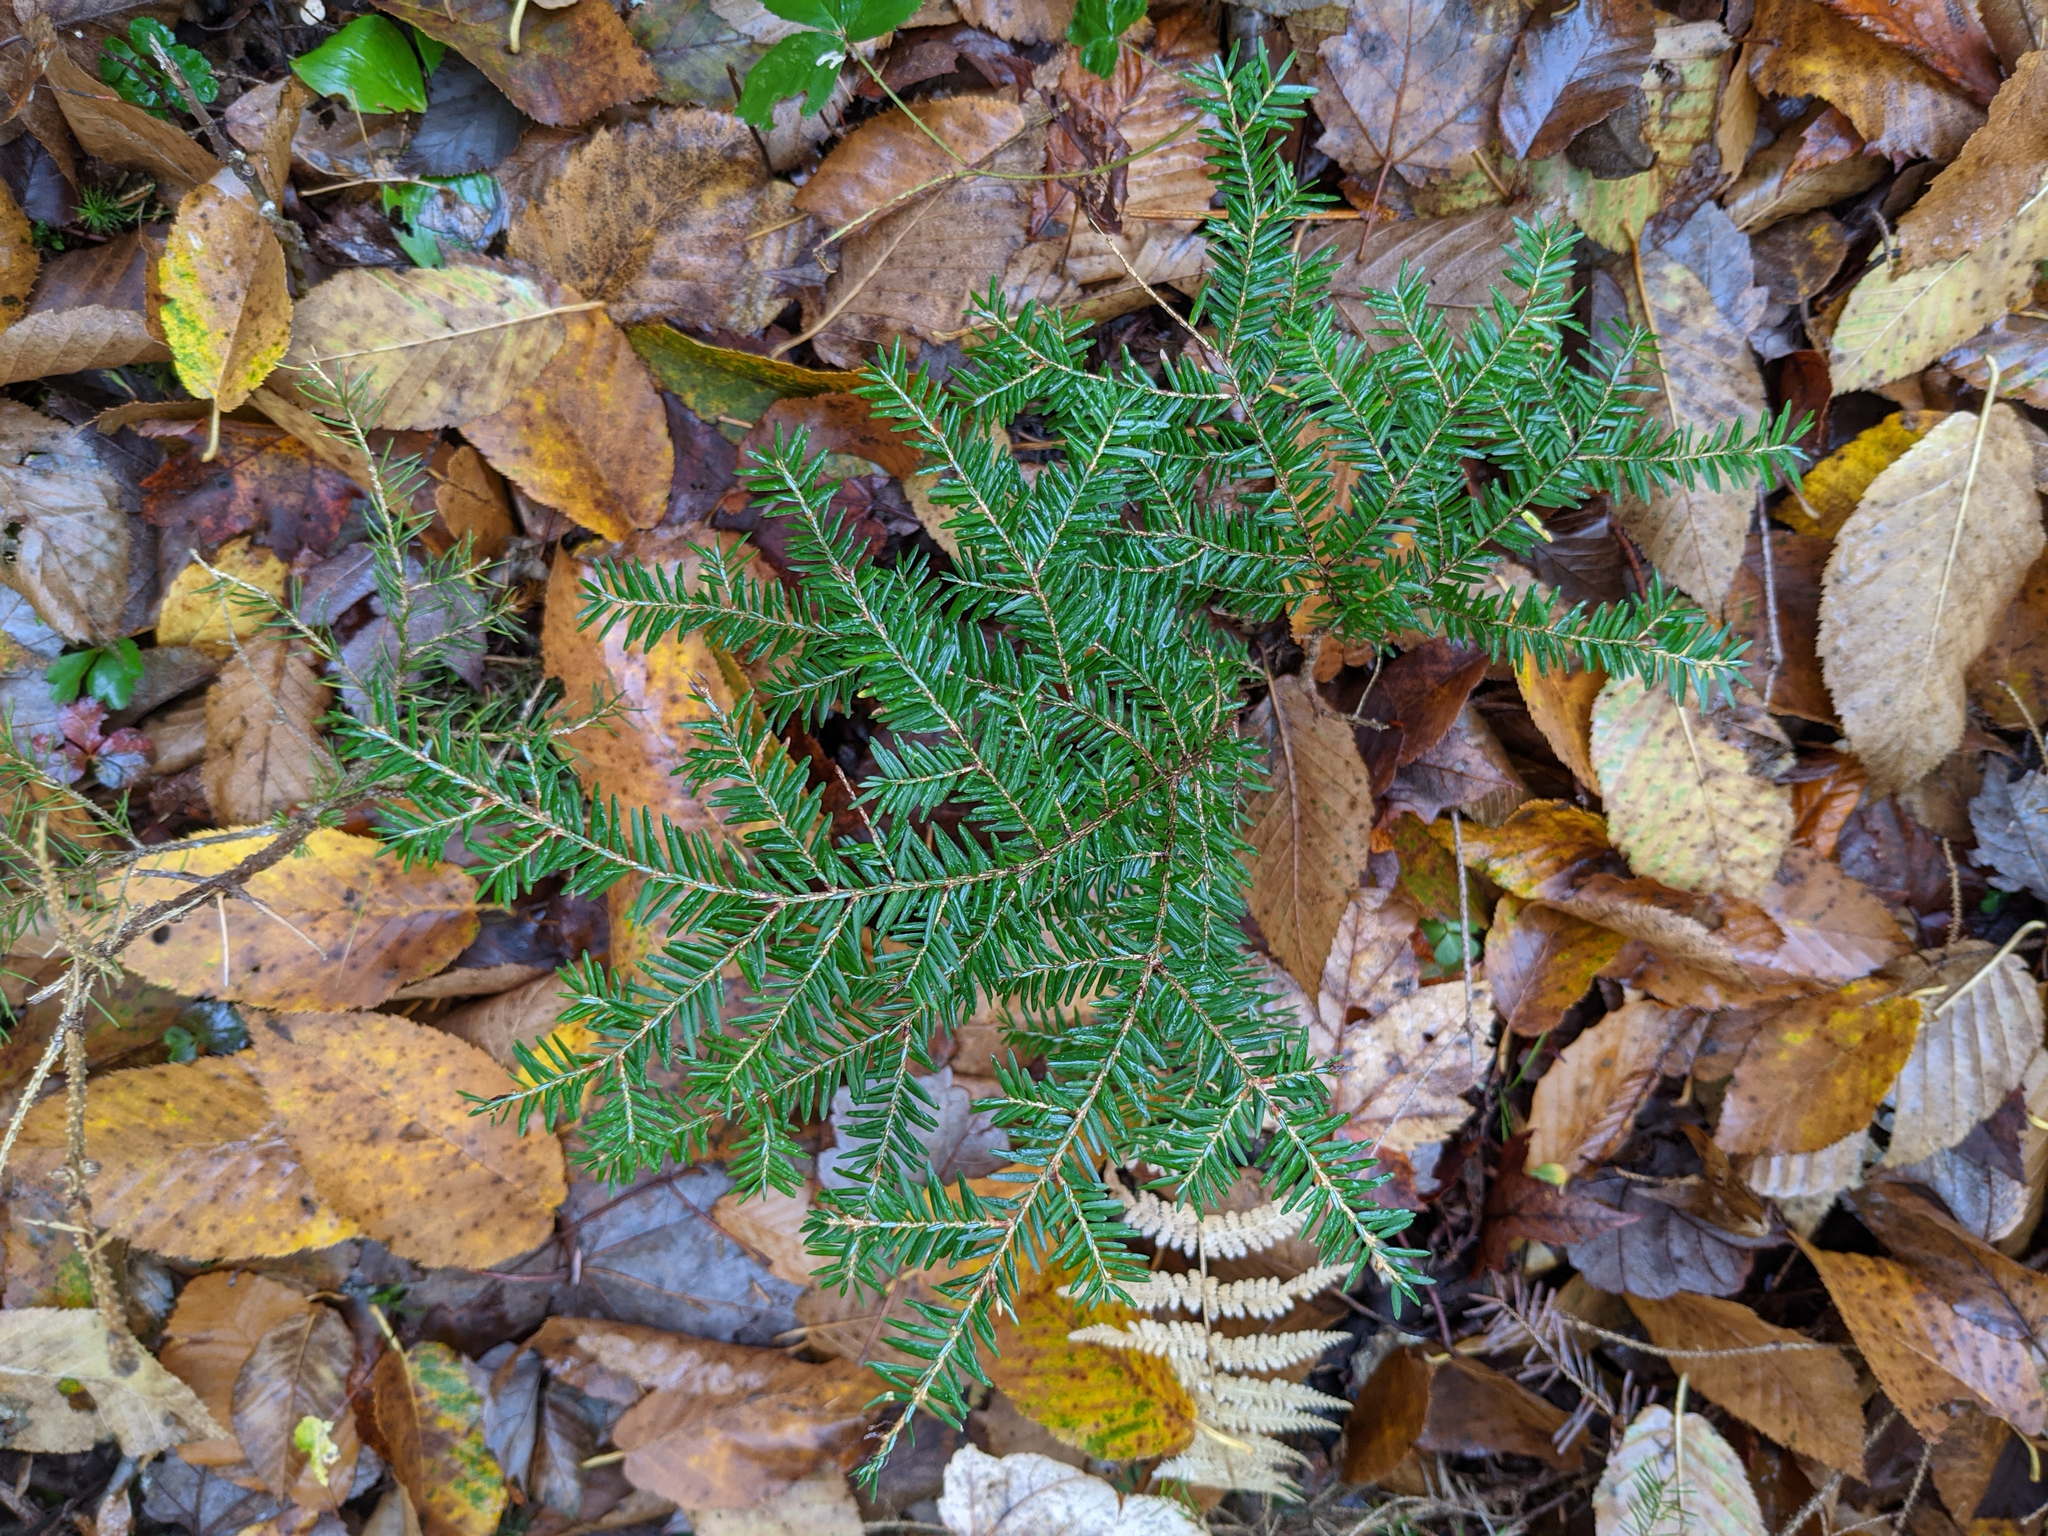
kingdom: Plantae
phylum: Tracheophyta
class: Pinopsida
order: Pinales
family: Pinaceae
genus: Tsuga
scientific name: Tsuga canadensis
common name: Eastern hemlock
